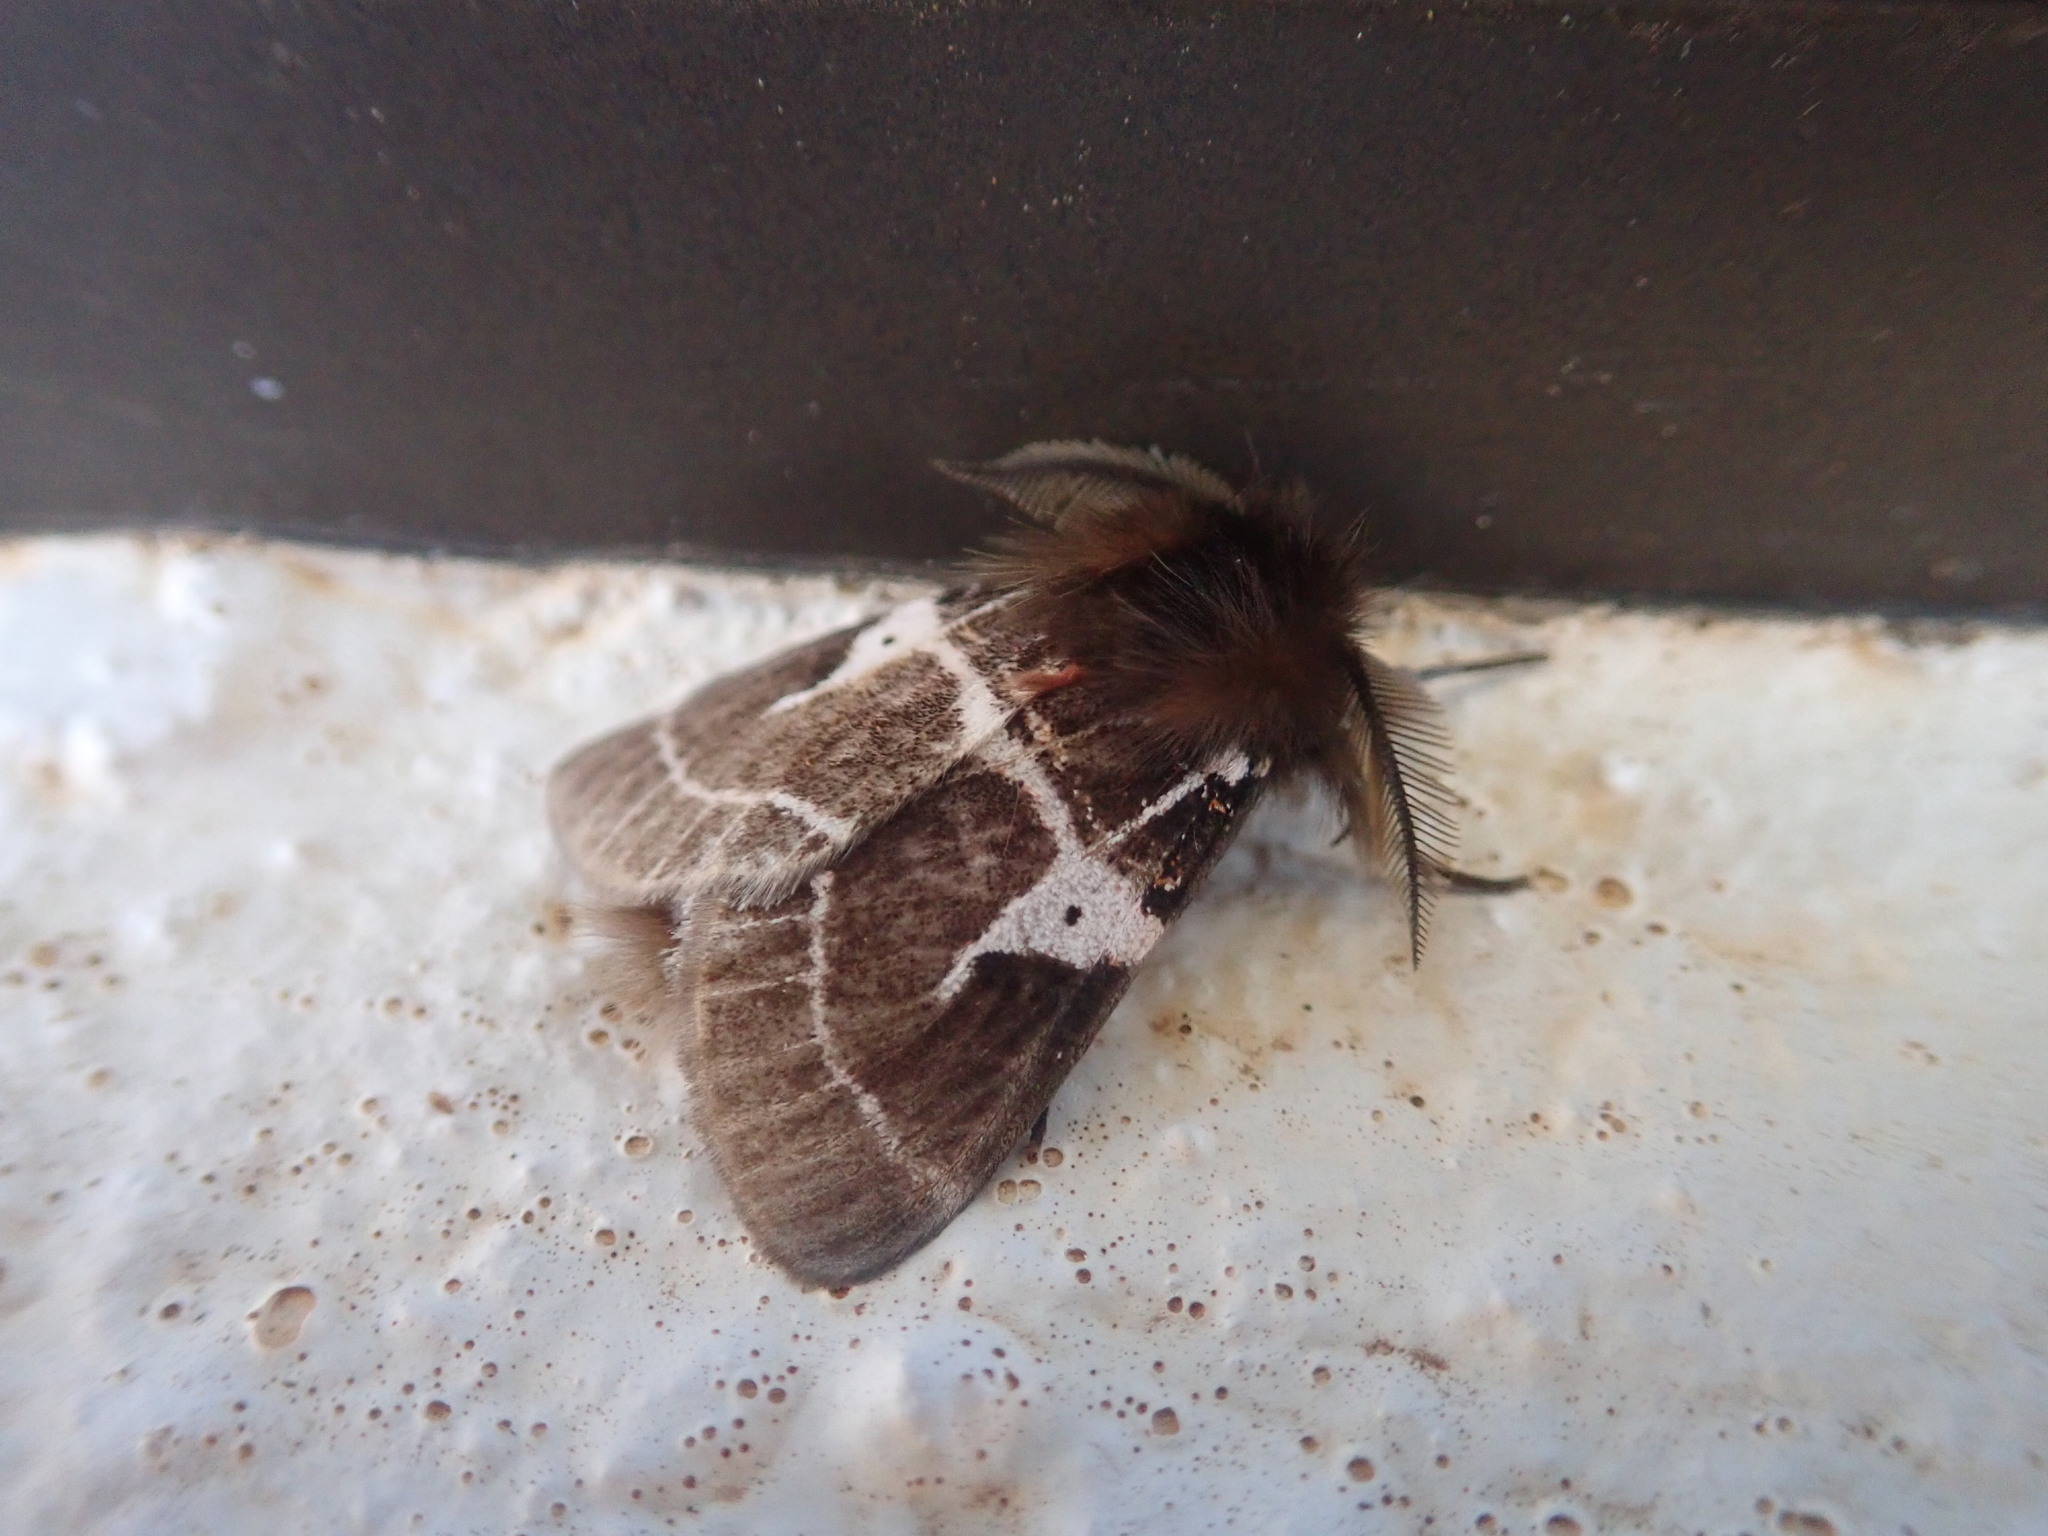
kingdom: Animalia
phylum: Arthropoda
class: Insecta
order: Lepidoptera
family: Erebidae
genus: Lymantria
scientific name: Lymantria Morasa modesta
